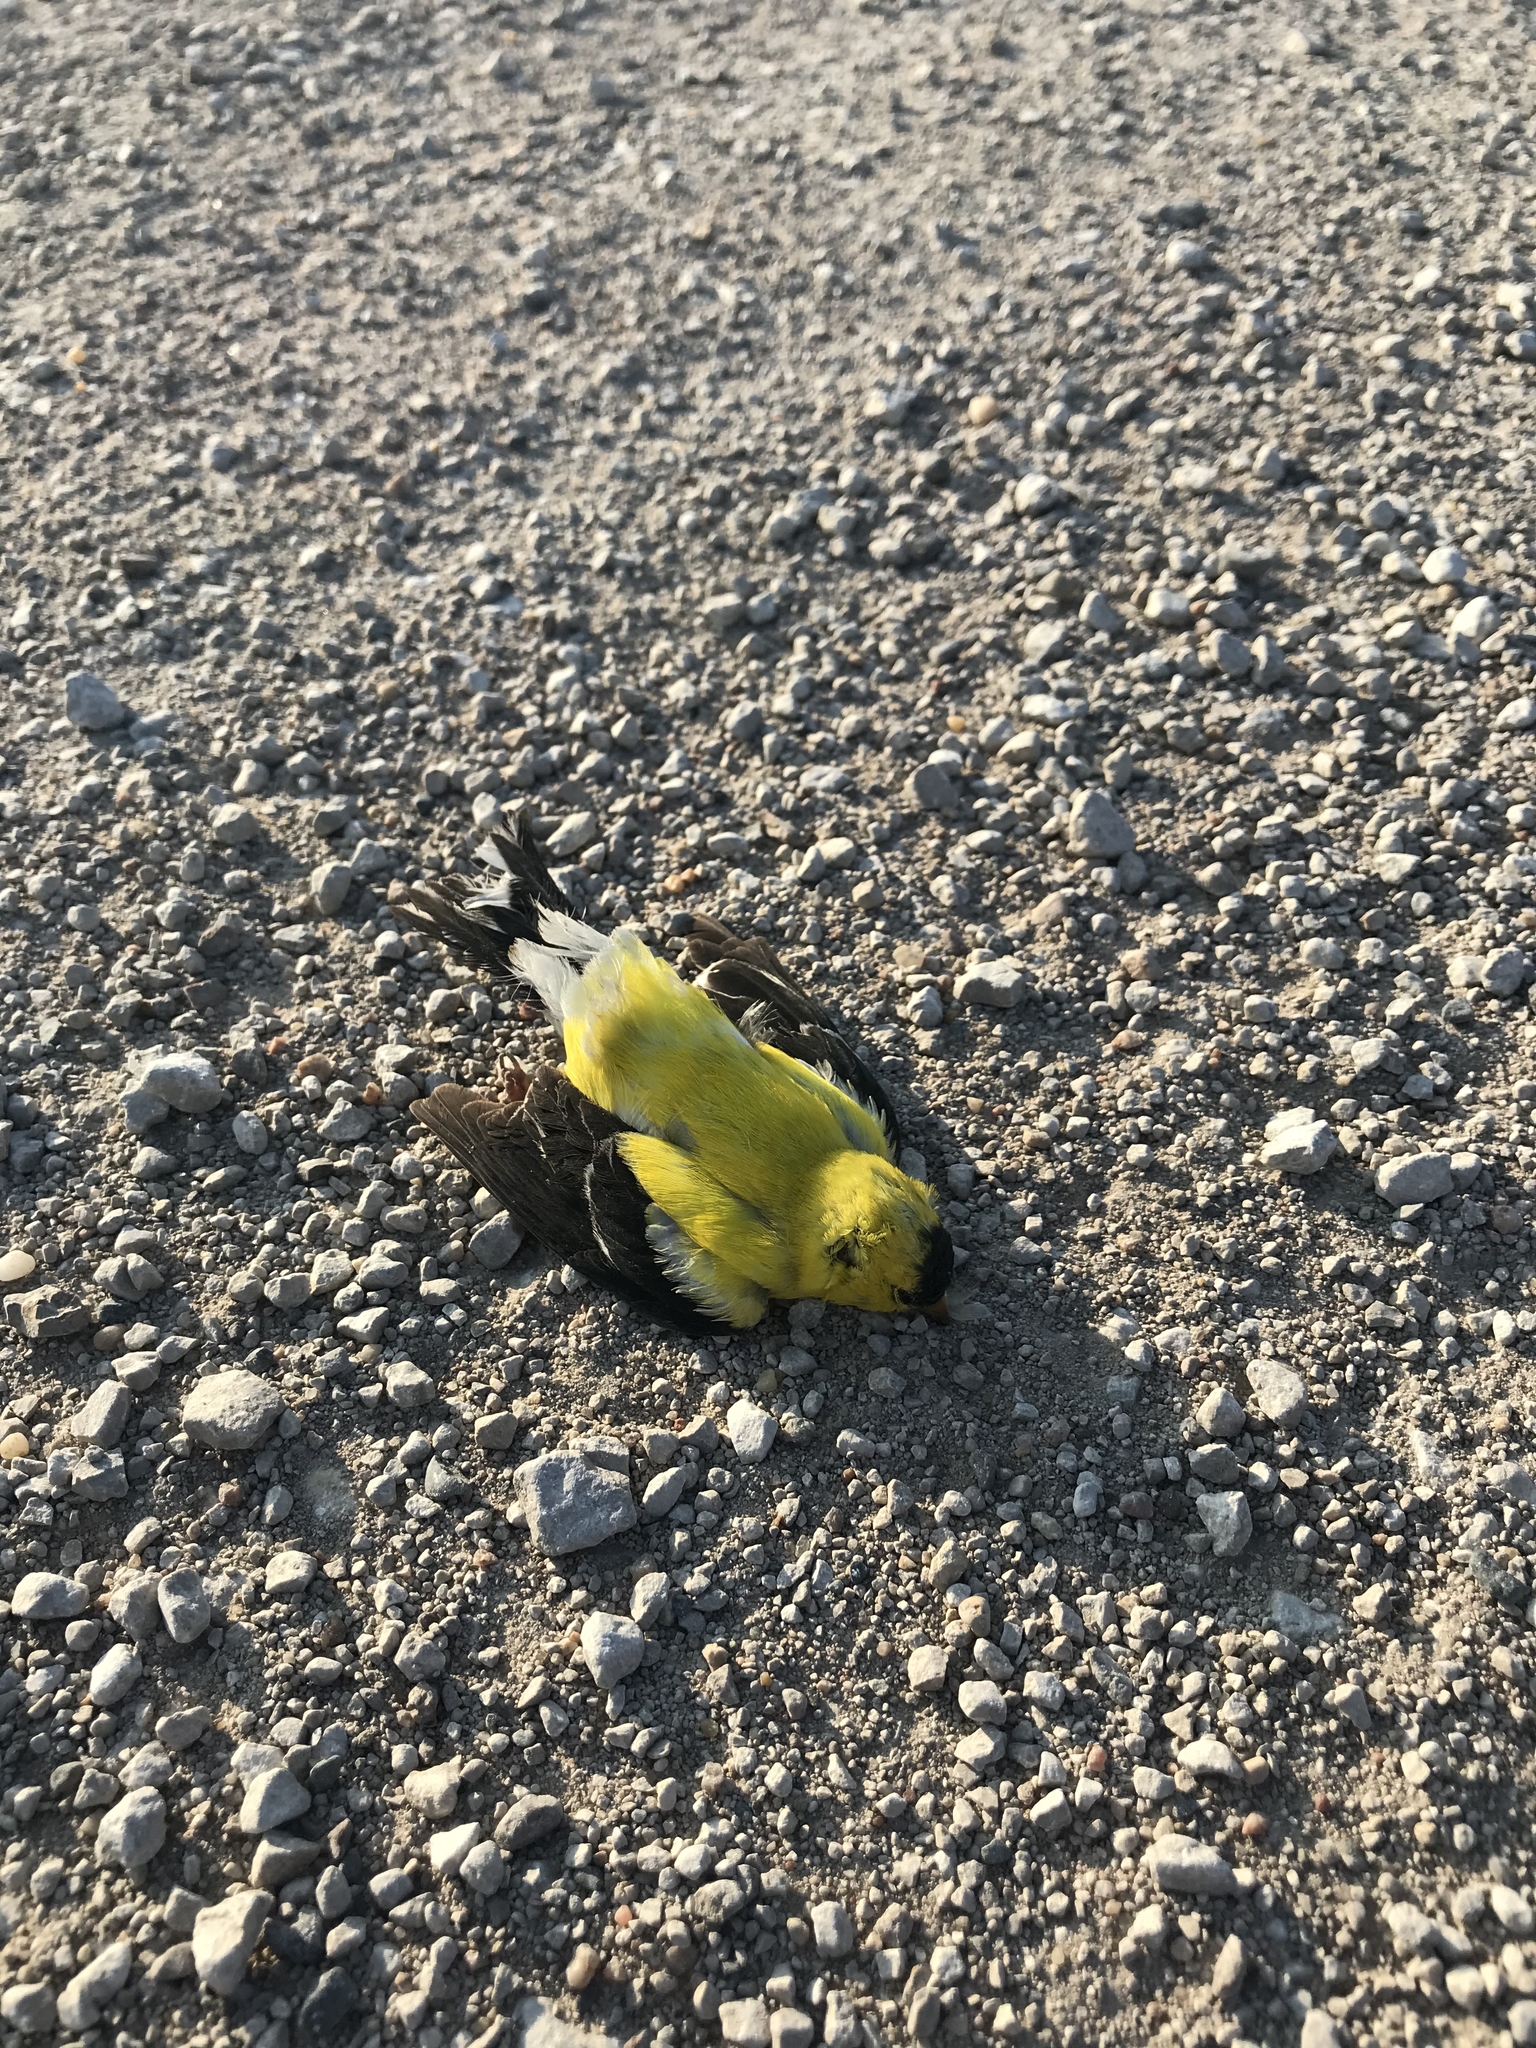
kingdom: Animalia
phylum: Chordata
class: Aves
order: Passeriformes
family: Fringillidae
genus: Spinus
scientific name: Spinus tristis
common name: American goldfinch
